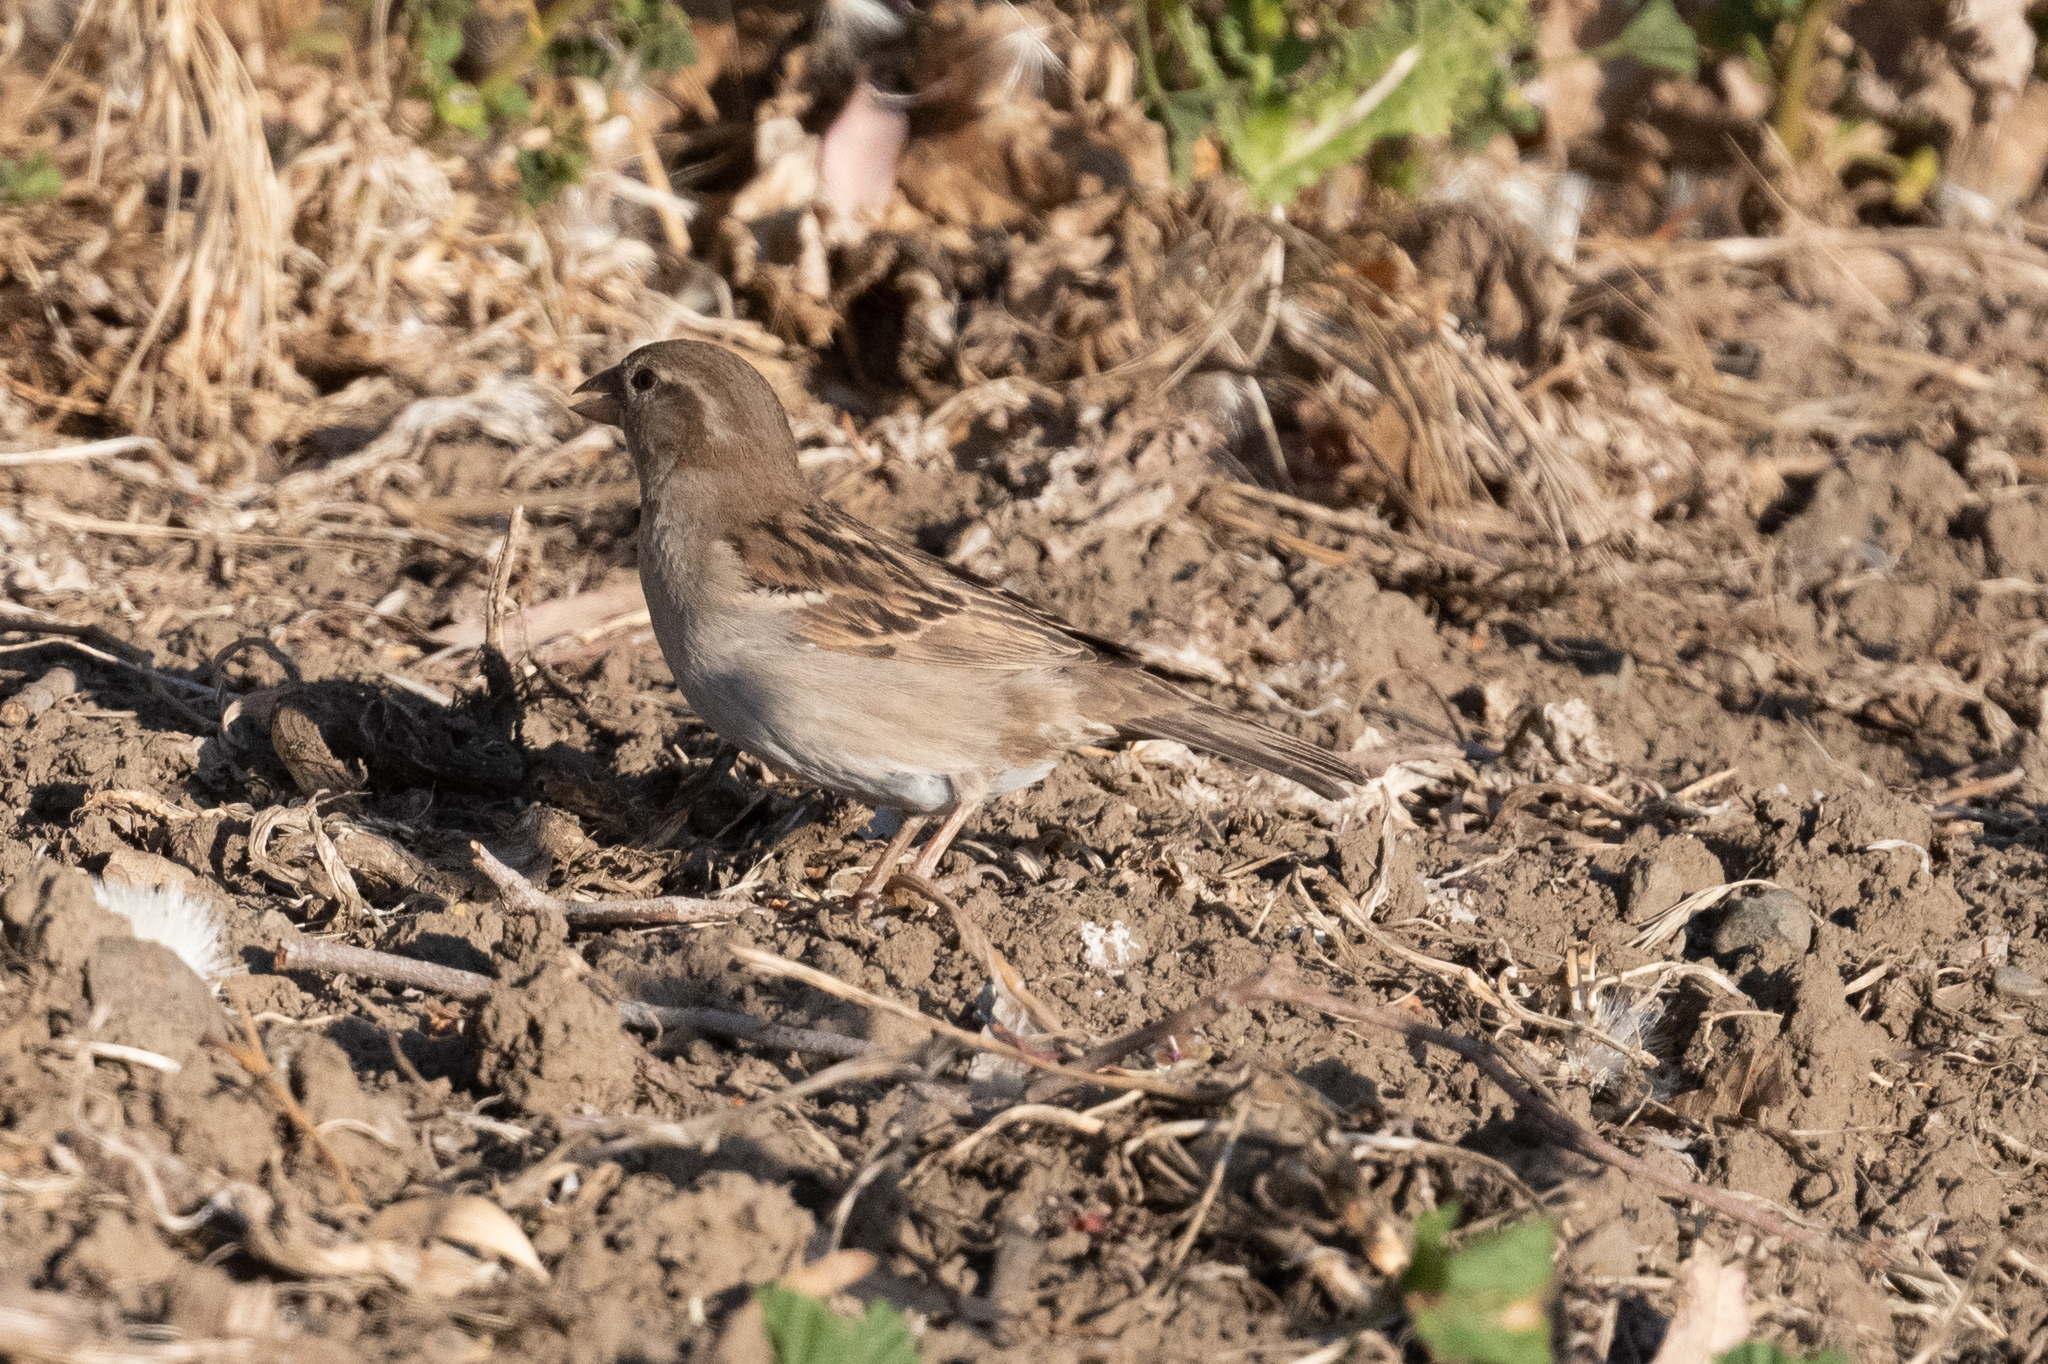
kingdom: Animalia
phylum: Chordata
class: Aves
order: Passeriformes
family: Passeridae
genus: Passer
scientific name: Passer domesticus
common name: House sparrow
